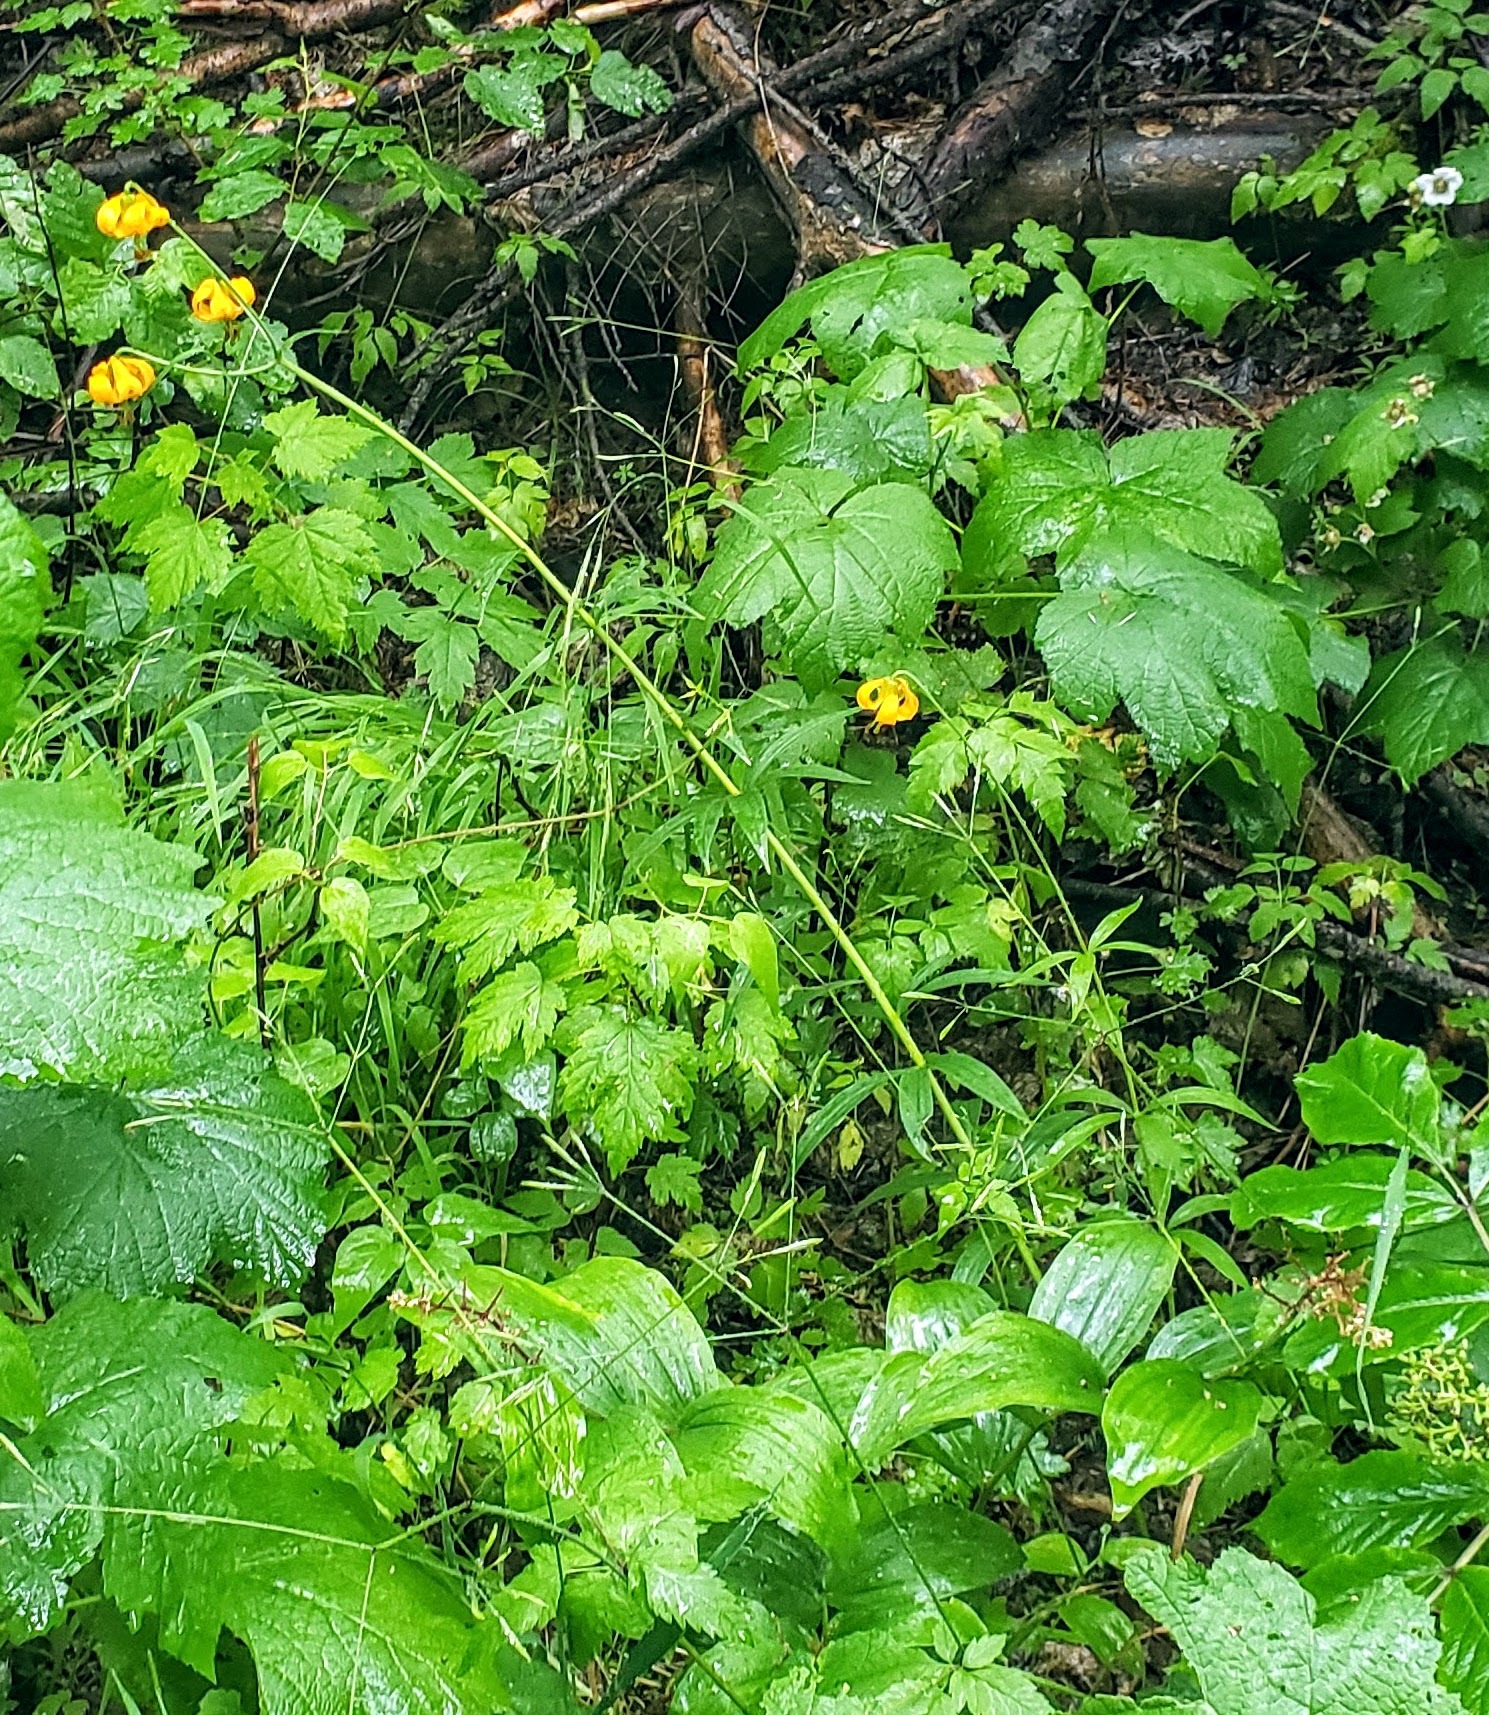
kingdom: Plantae
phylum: Tracheophyta
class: Liliopsida
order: Liliales
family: Liliaceae
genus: Lilium
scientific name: Lilium columbianum
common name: Columbia lily
